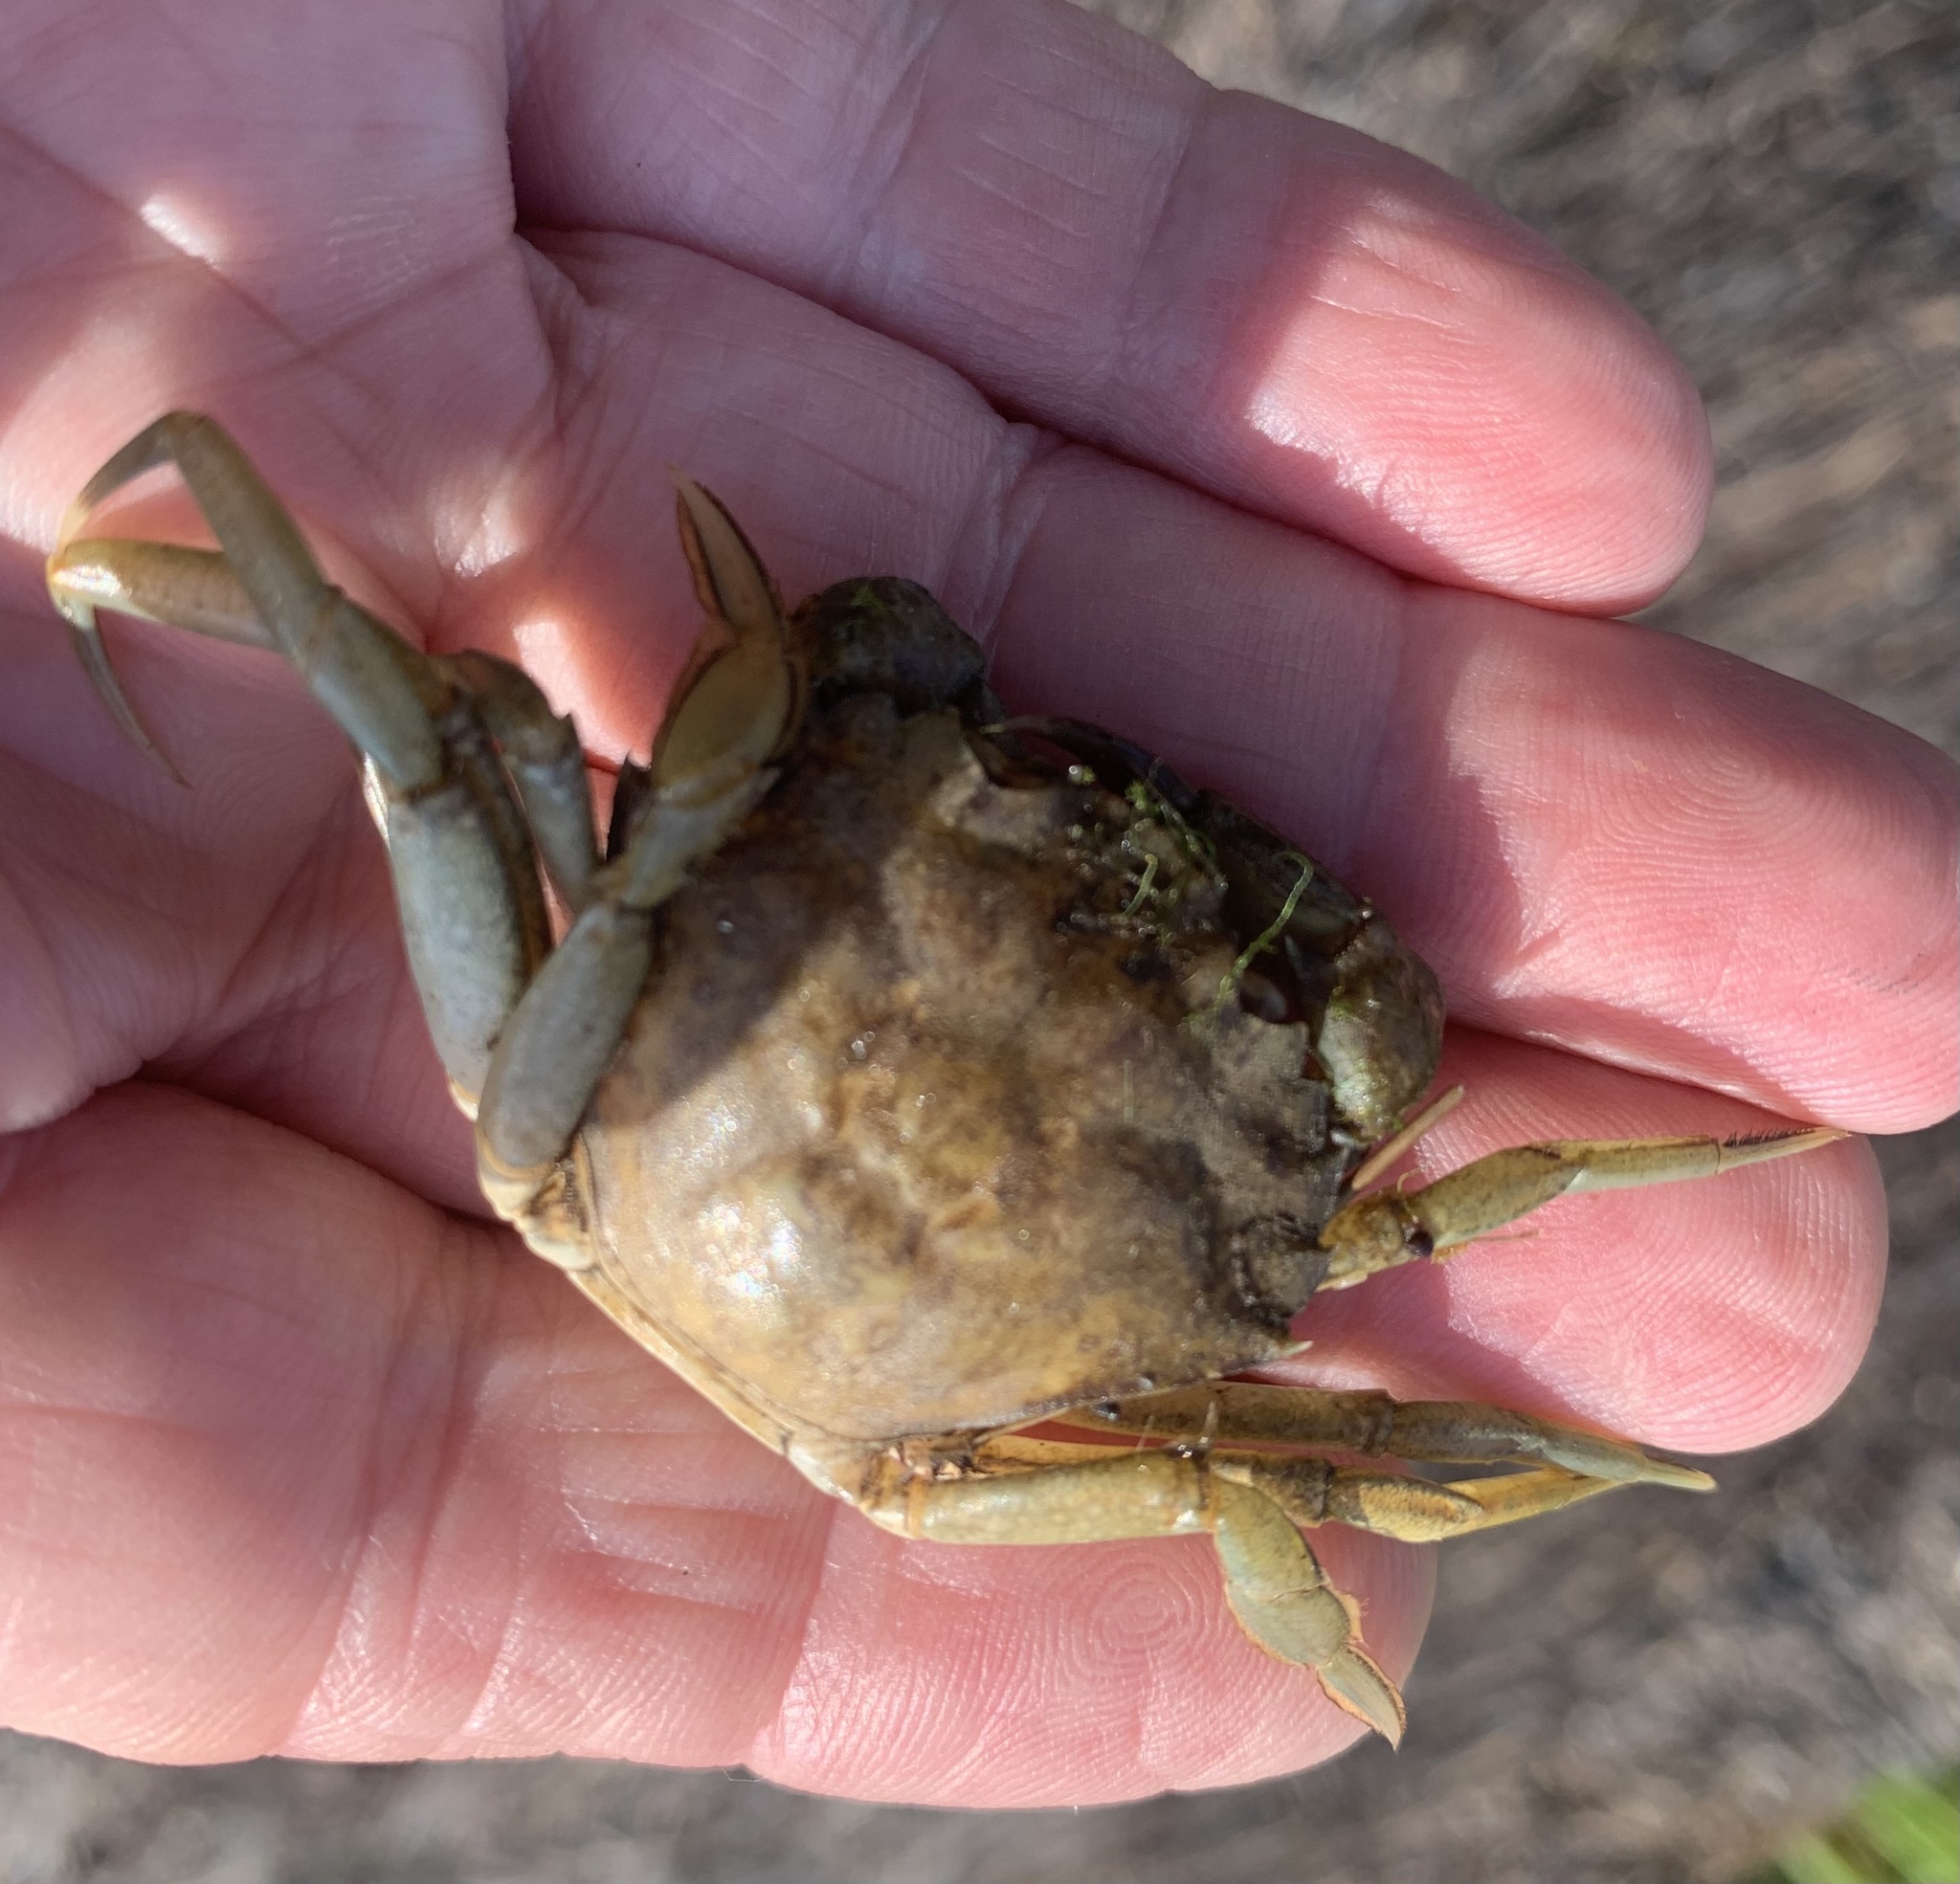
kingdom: Animalia
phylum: Arthropoda
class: Malacostraca
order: Decapoda
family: Carcinidae
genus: Carcinus
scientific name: Carcinus maenas
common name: European green crab
